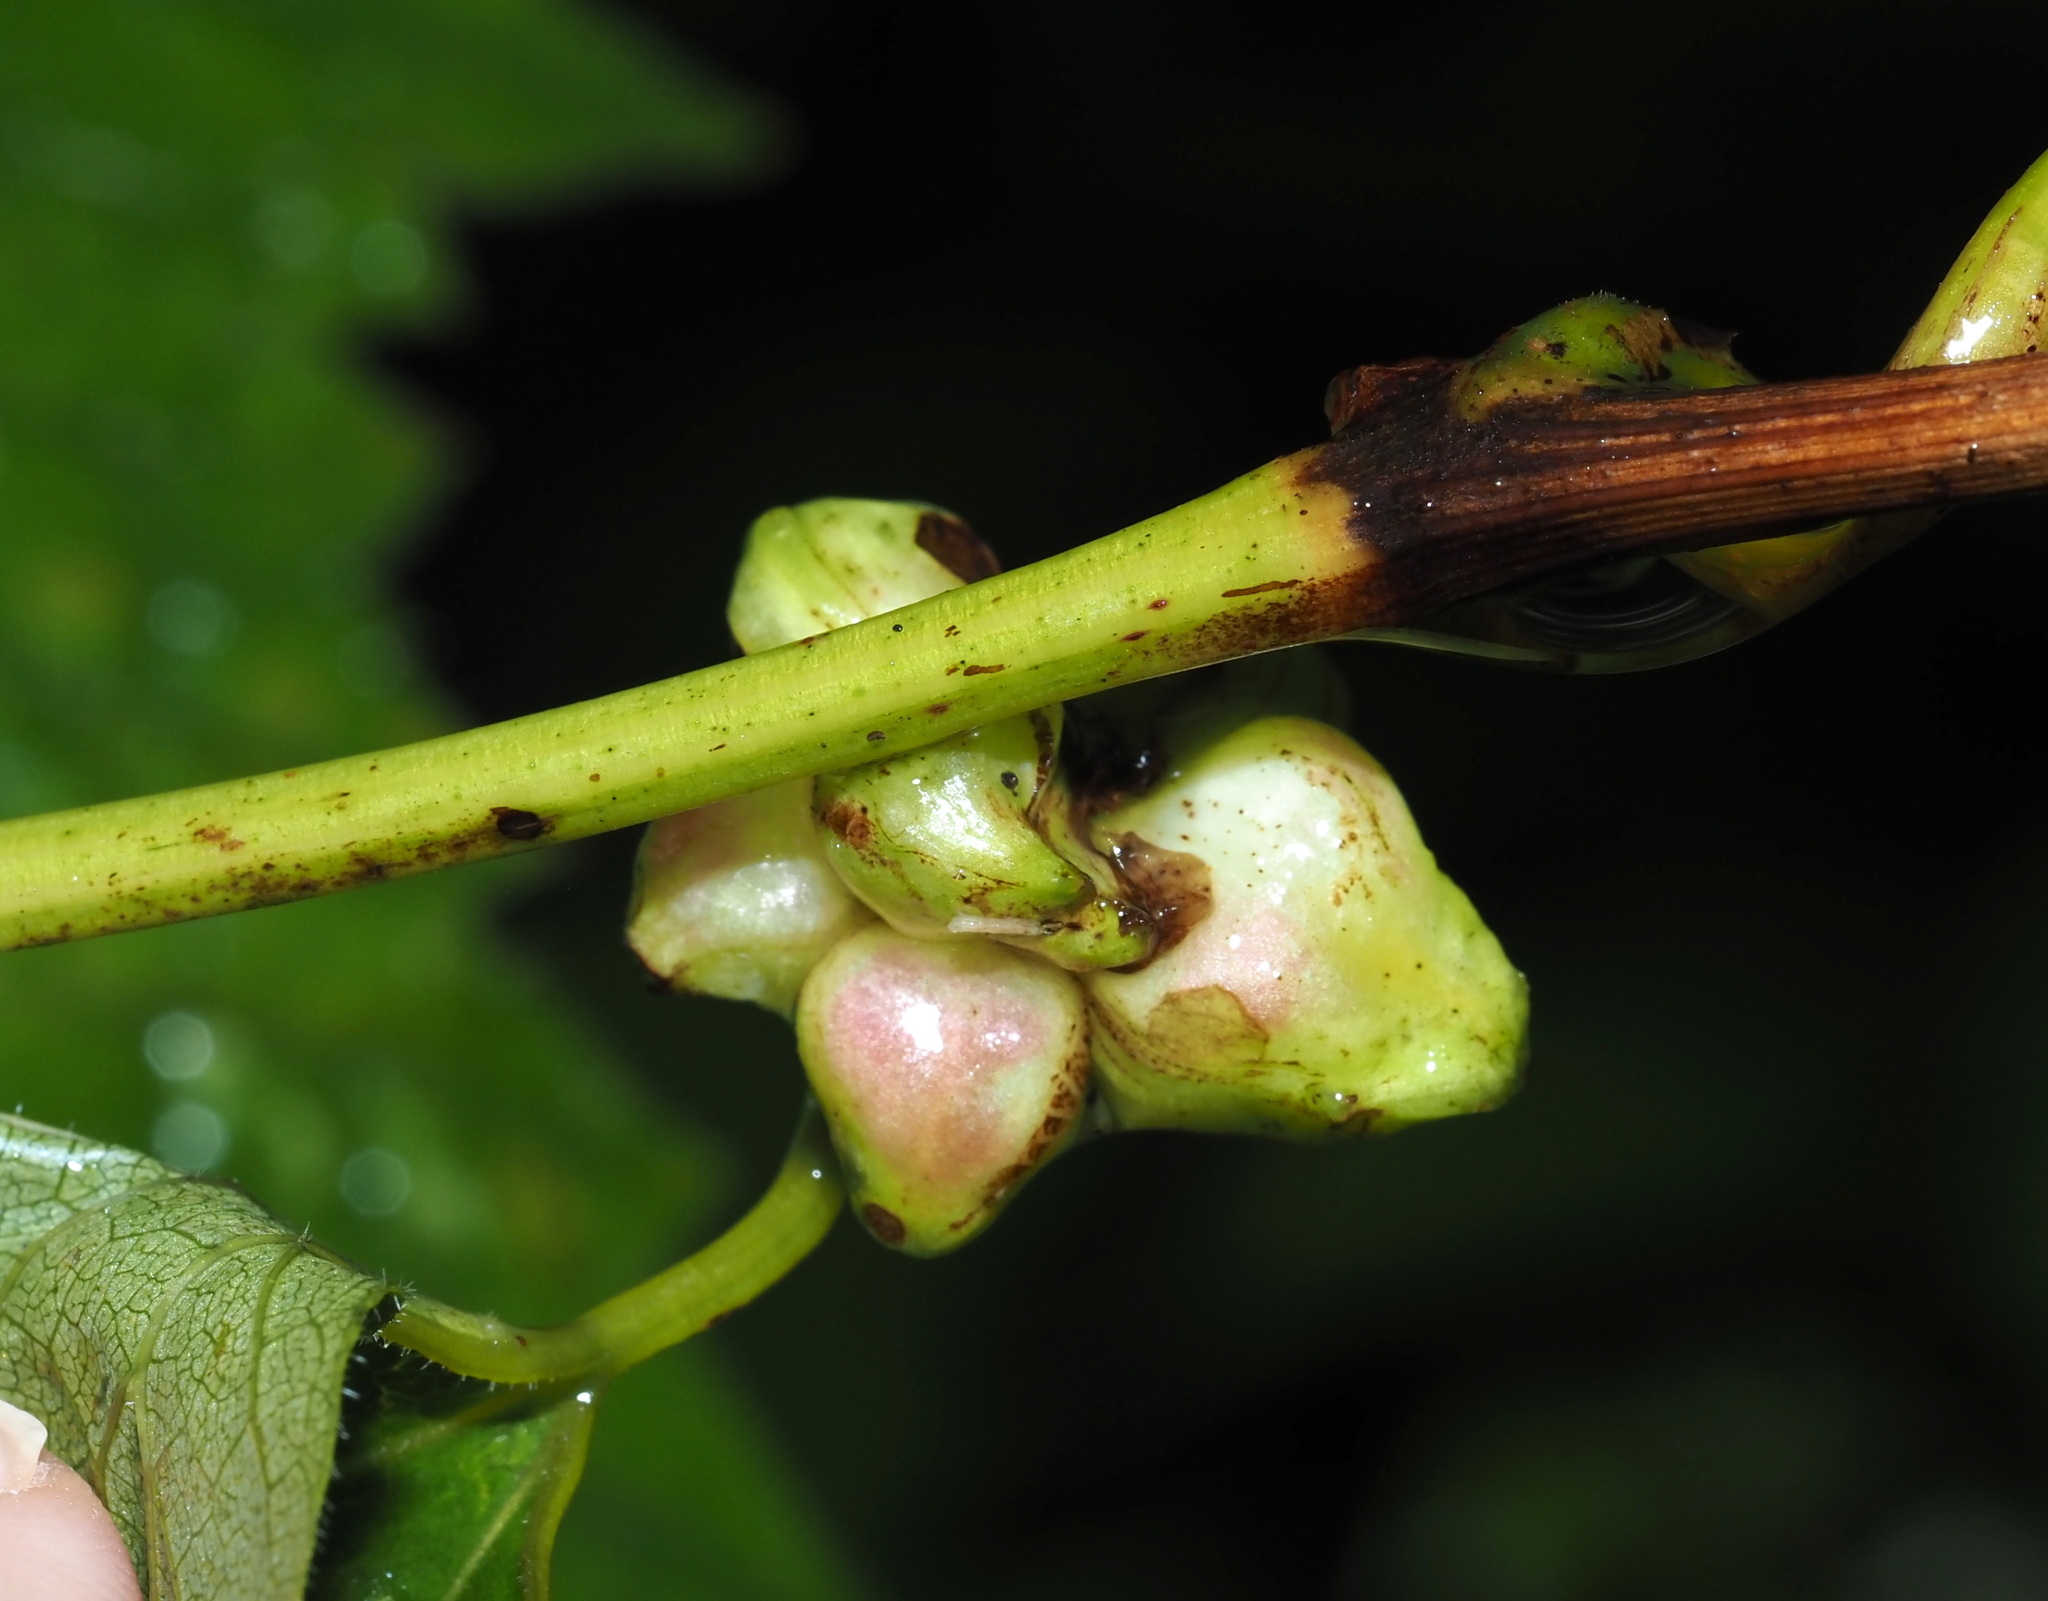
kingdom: Animalia
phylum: Arthropoda
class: Insecta
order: Diptera
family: Cecidomyiidae
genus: Ampelomyia
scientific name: Ampelomyia vitiscoryloides
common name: Grape filbert gall
